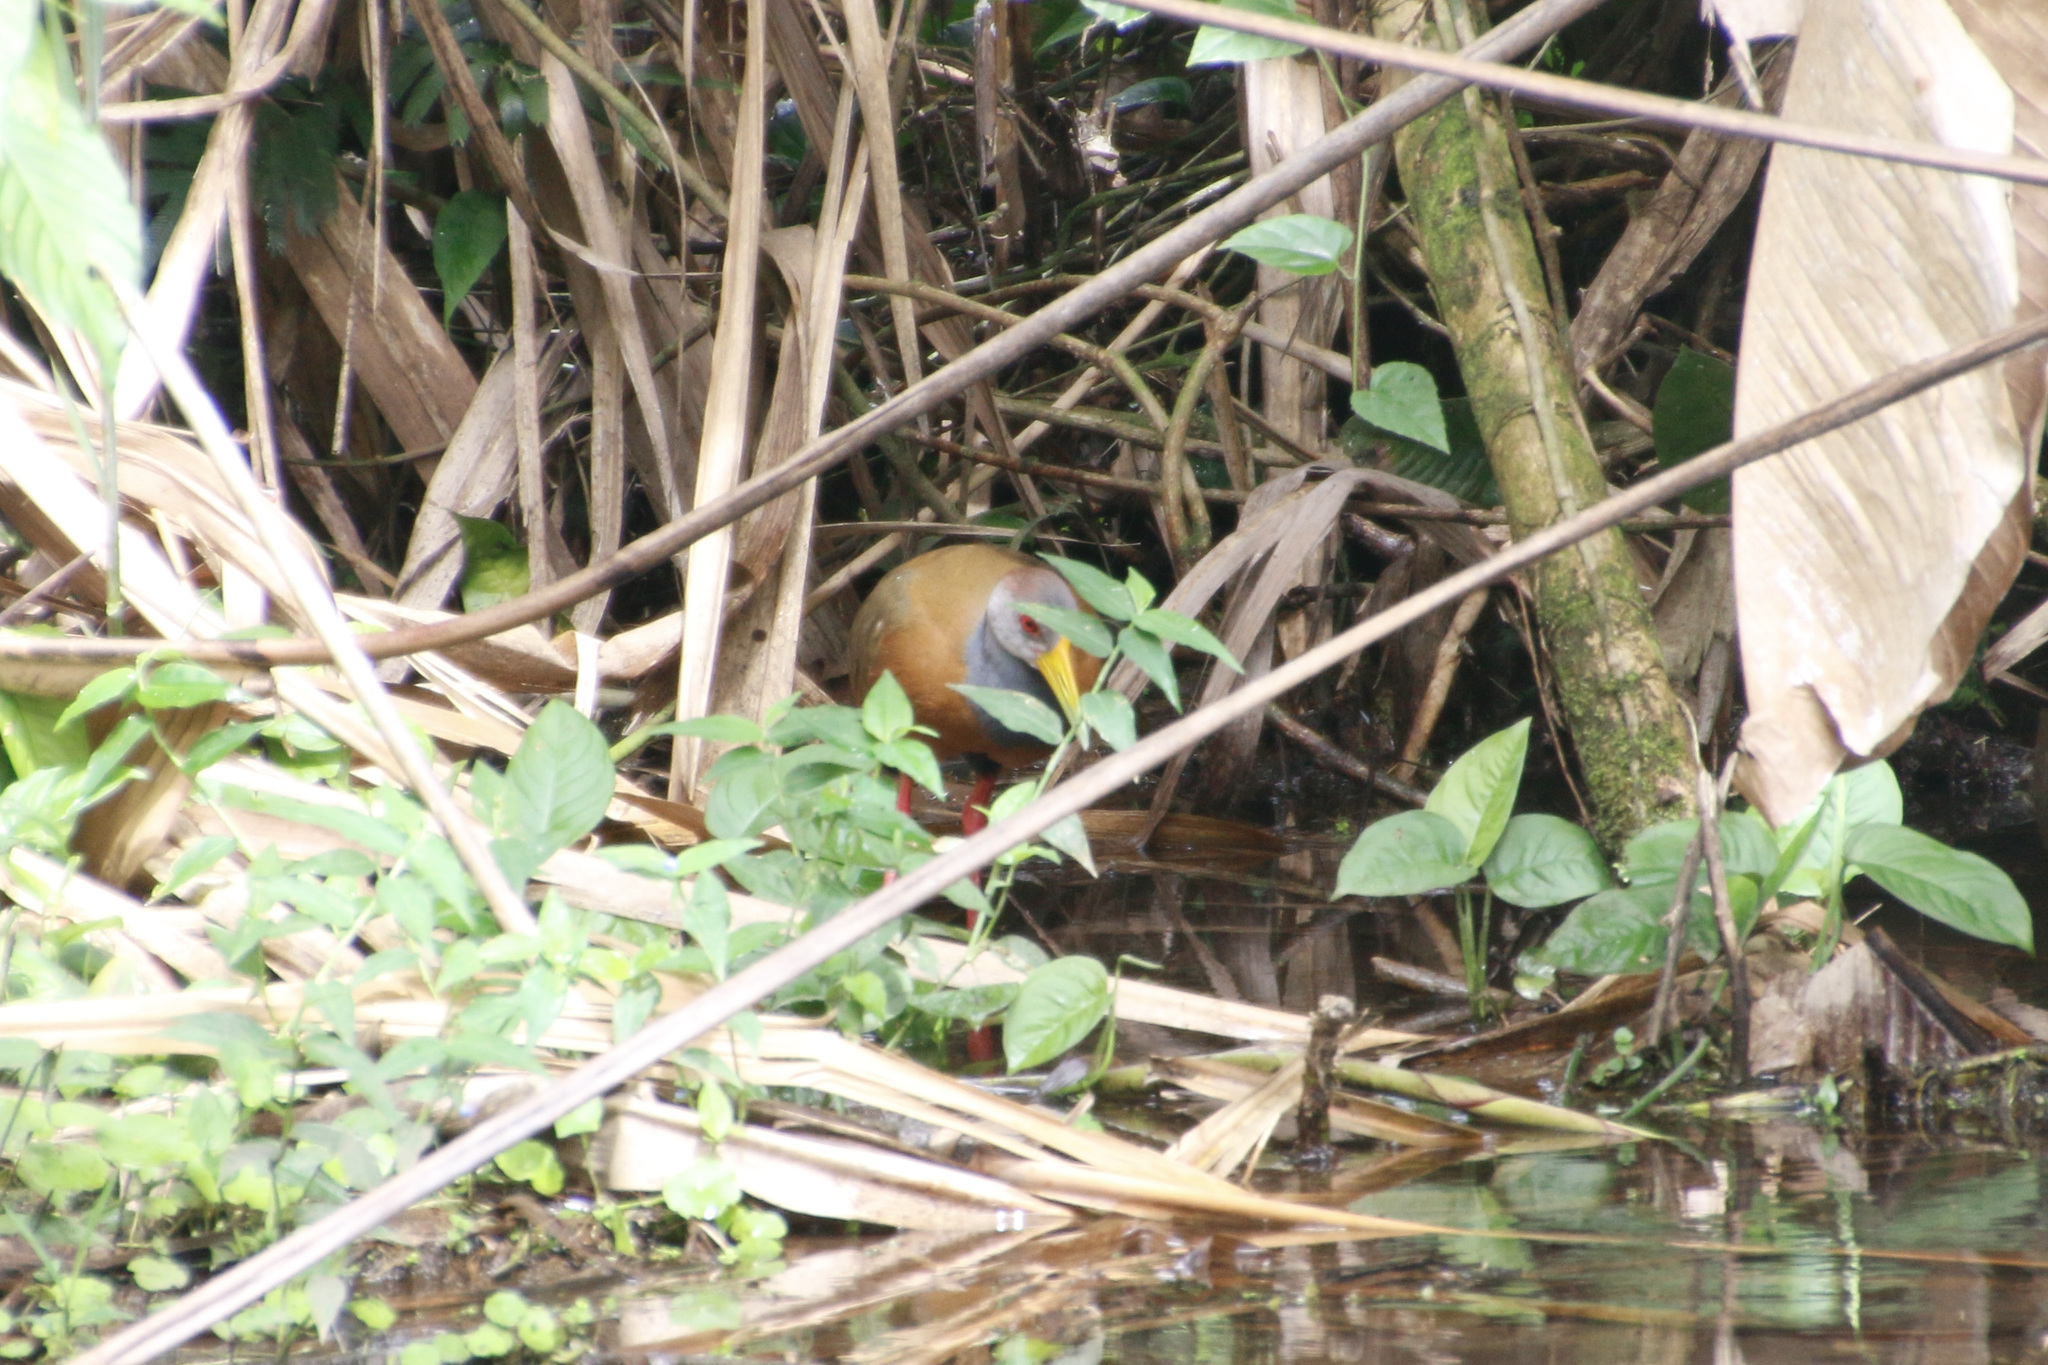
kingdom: Animalia
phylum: Chordata
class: Aves
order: Gruiformes
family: Rallidae
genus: Aramides
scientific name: Aramides albiventris
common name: Russet-naped wood-rail
